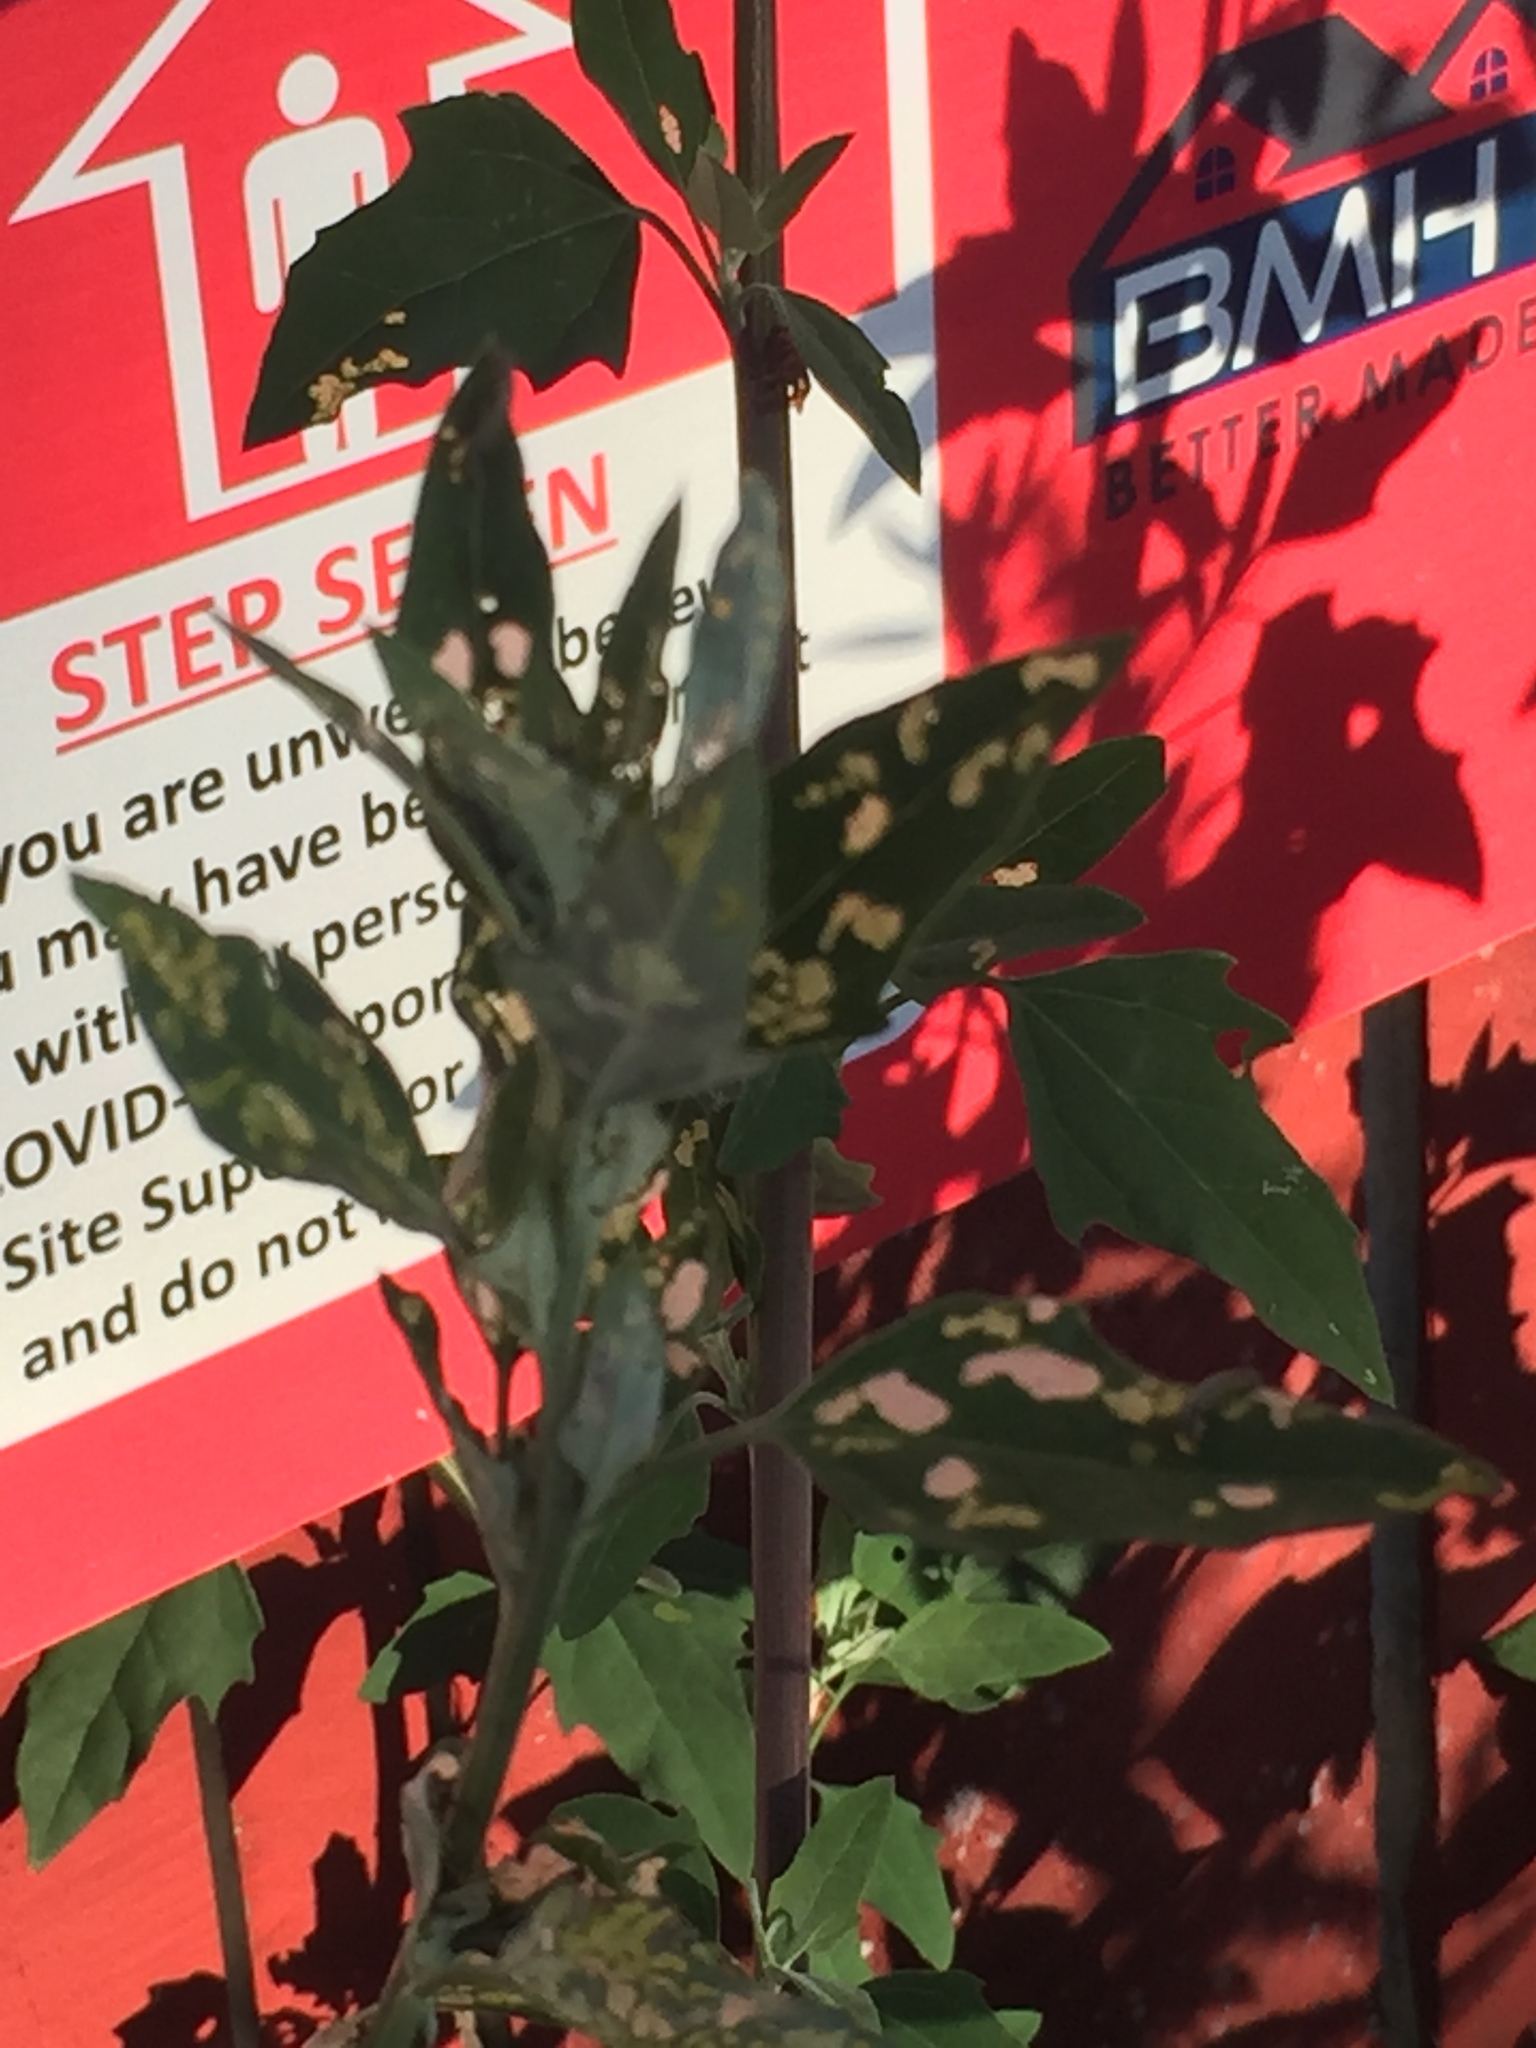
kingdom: Animalia
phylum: Arthropoda
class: Insecta
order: Lepidoptera
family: Noctuidae
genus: Spodoptera
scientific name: Spodoptera litura
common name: Asian cotton leafworm
